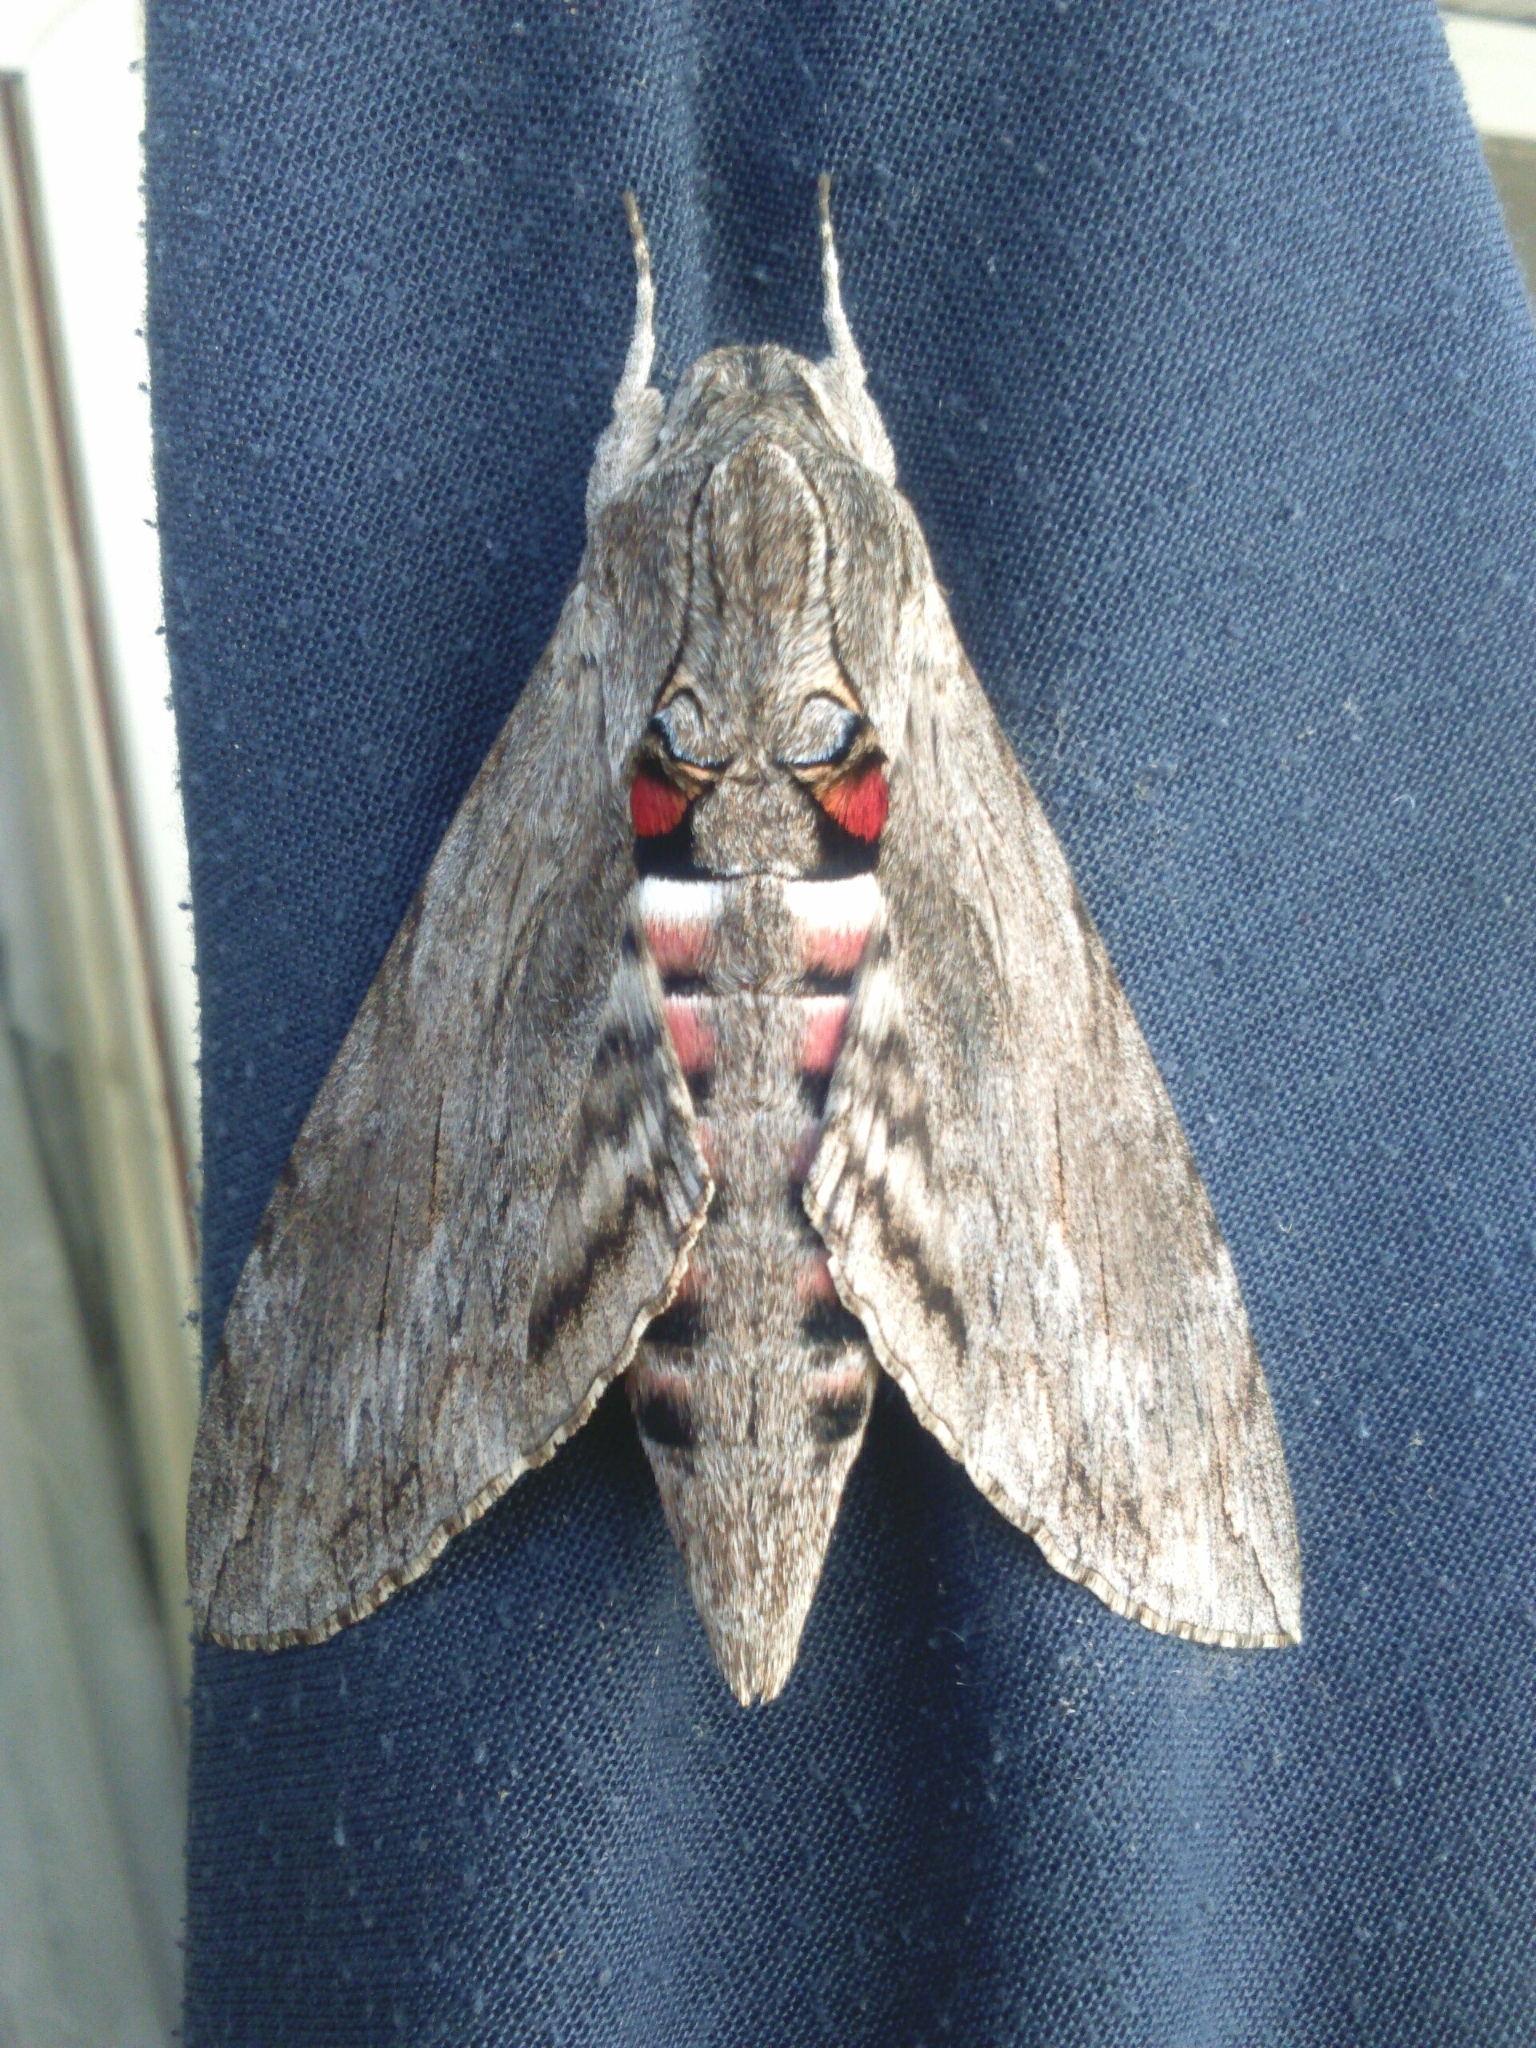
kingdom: Animalia
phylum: Arthropoda
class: Insecta
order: Lepidoptera
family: Sphingidae
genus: Agrius
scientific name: Agrius convolvuli
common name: Convolvulus hawkmoth
